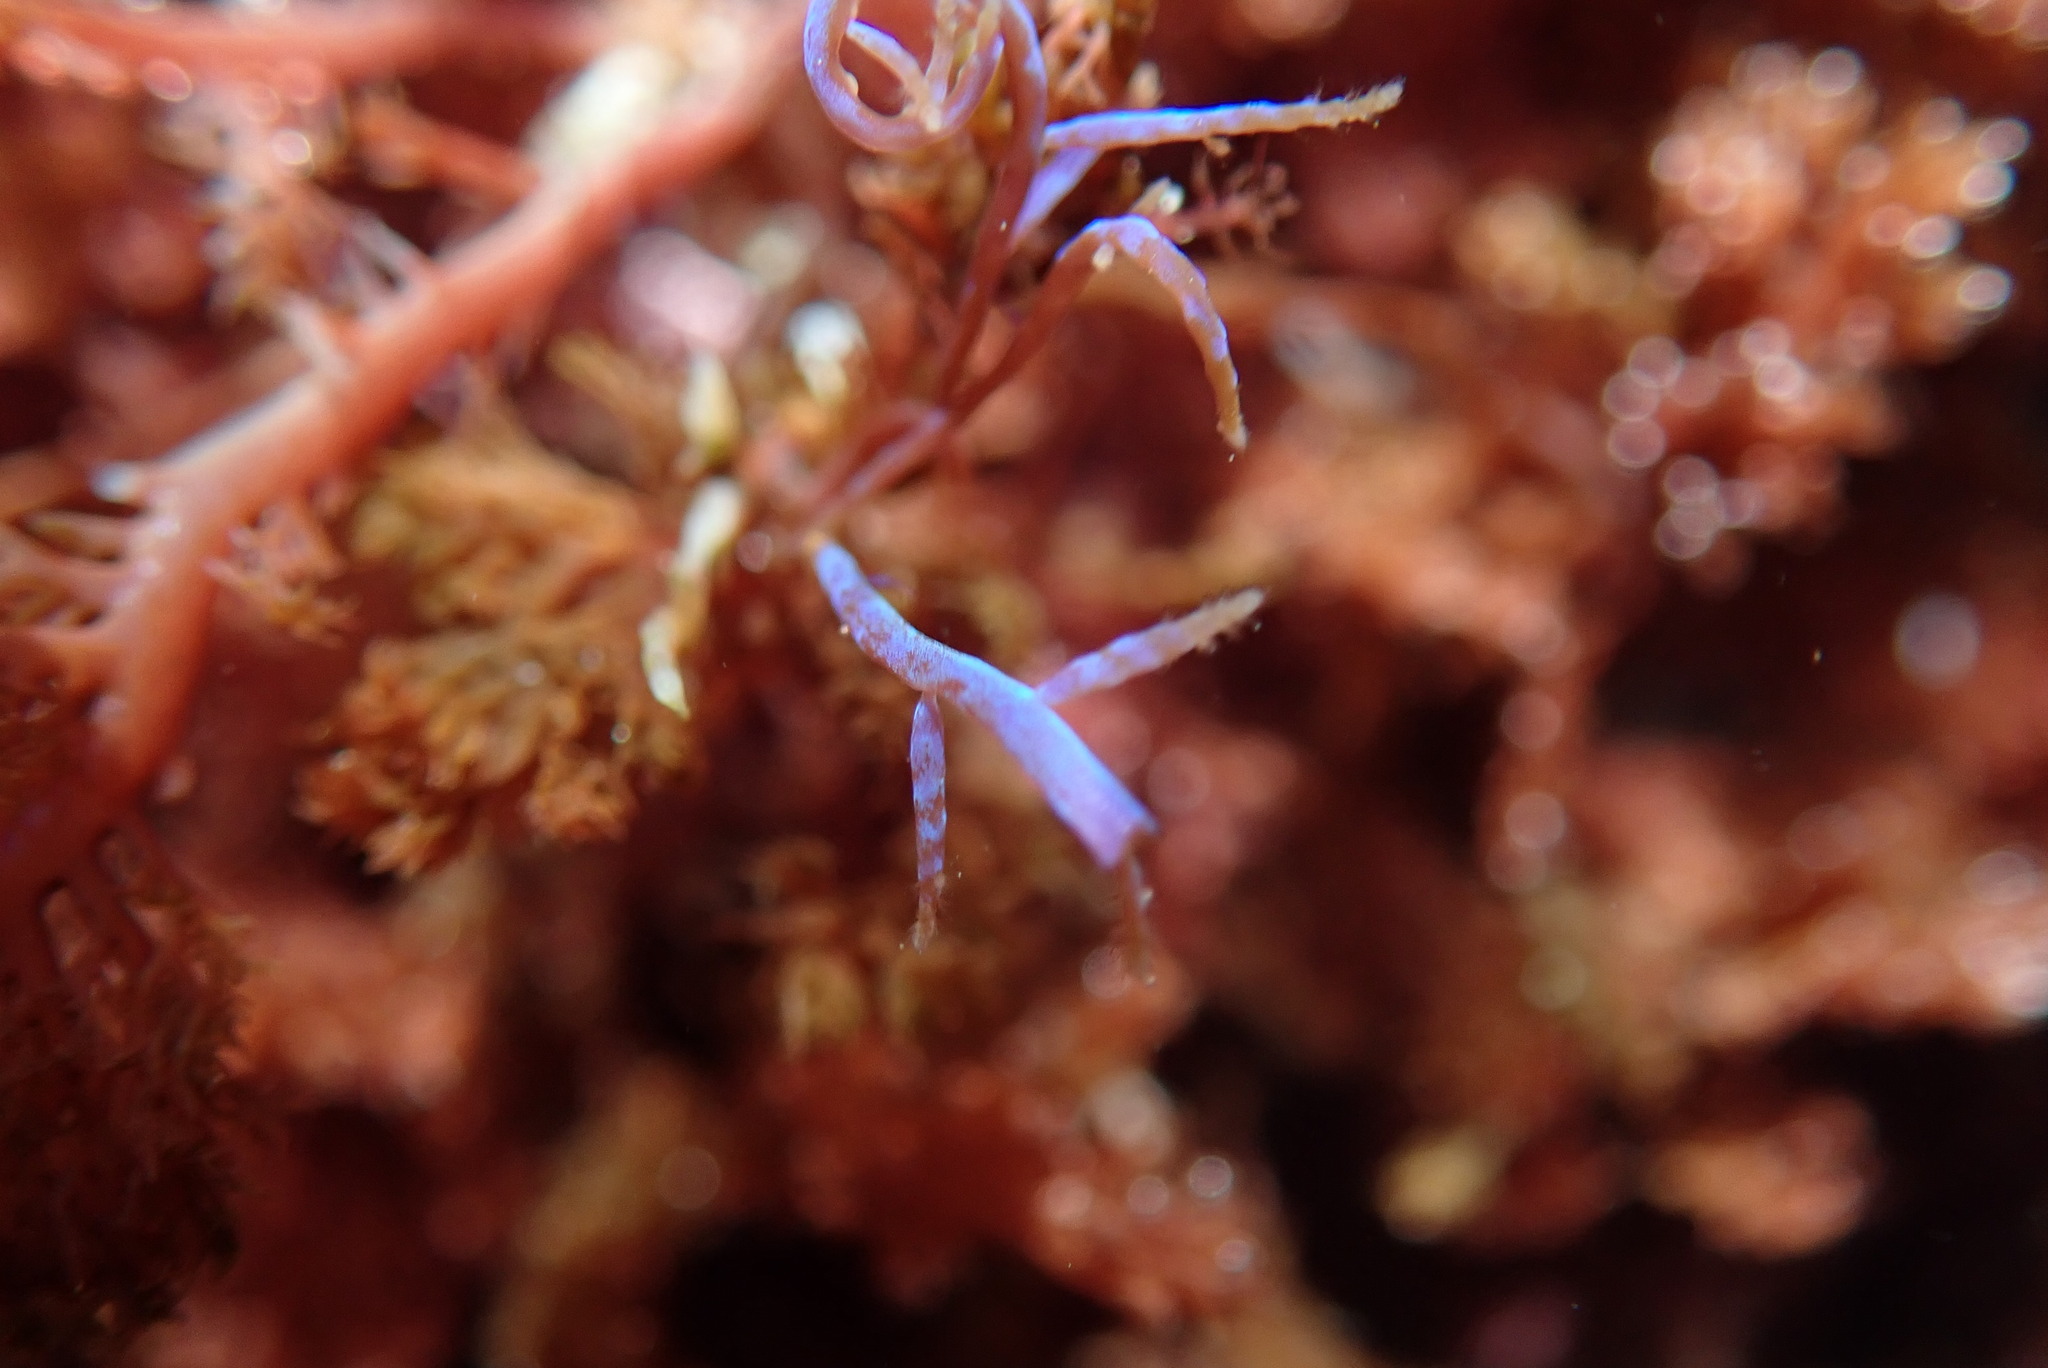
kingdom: Plantae
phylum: Rhodophyta
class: Florideophyceae
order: Ceramiales
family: Rhodomelaceae
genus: Chondria
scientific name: Chondria acrorhizophora
